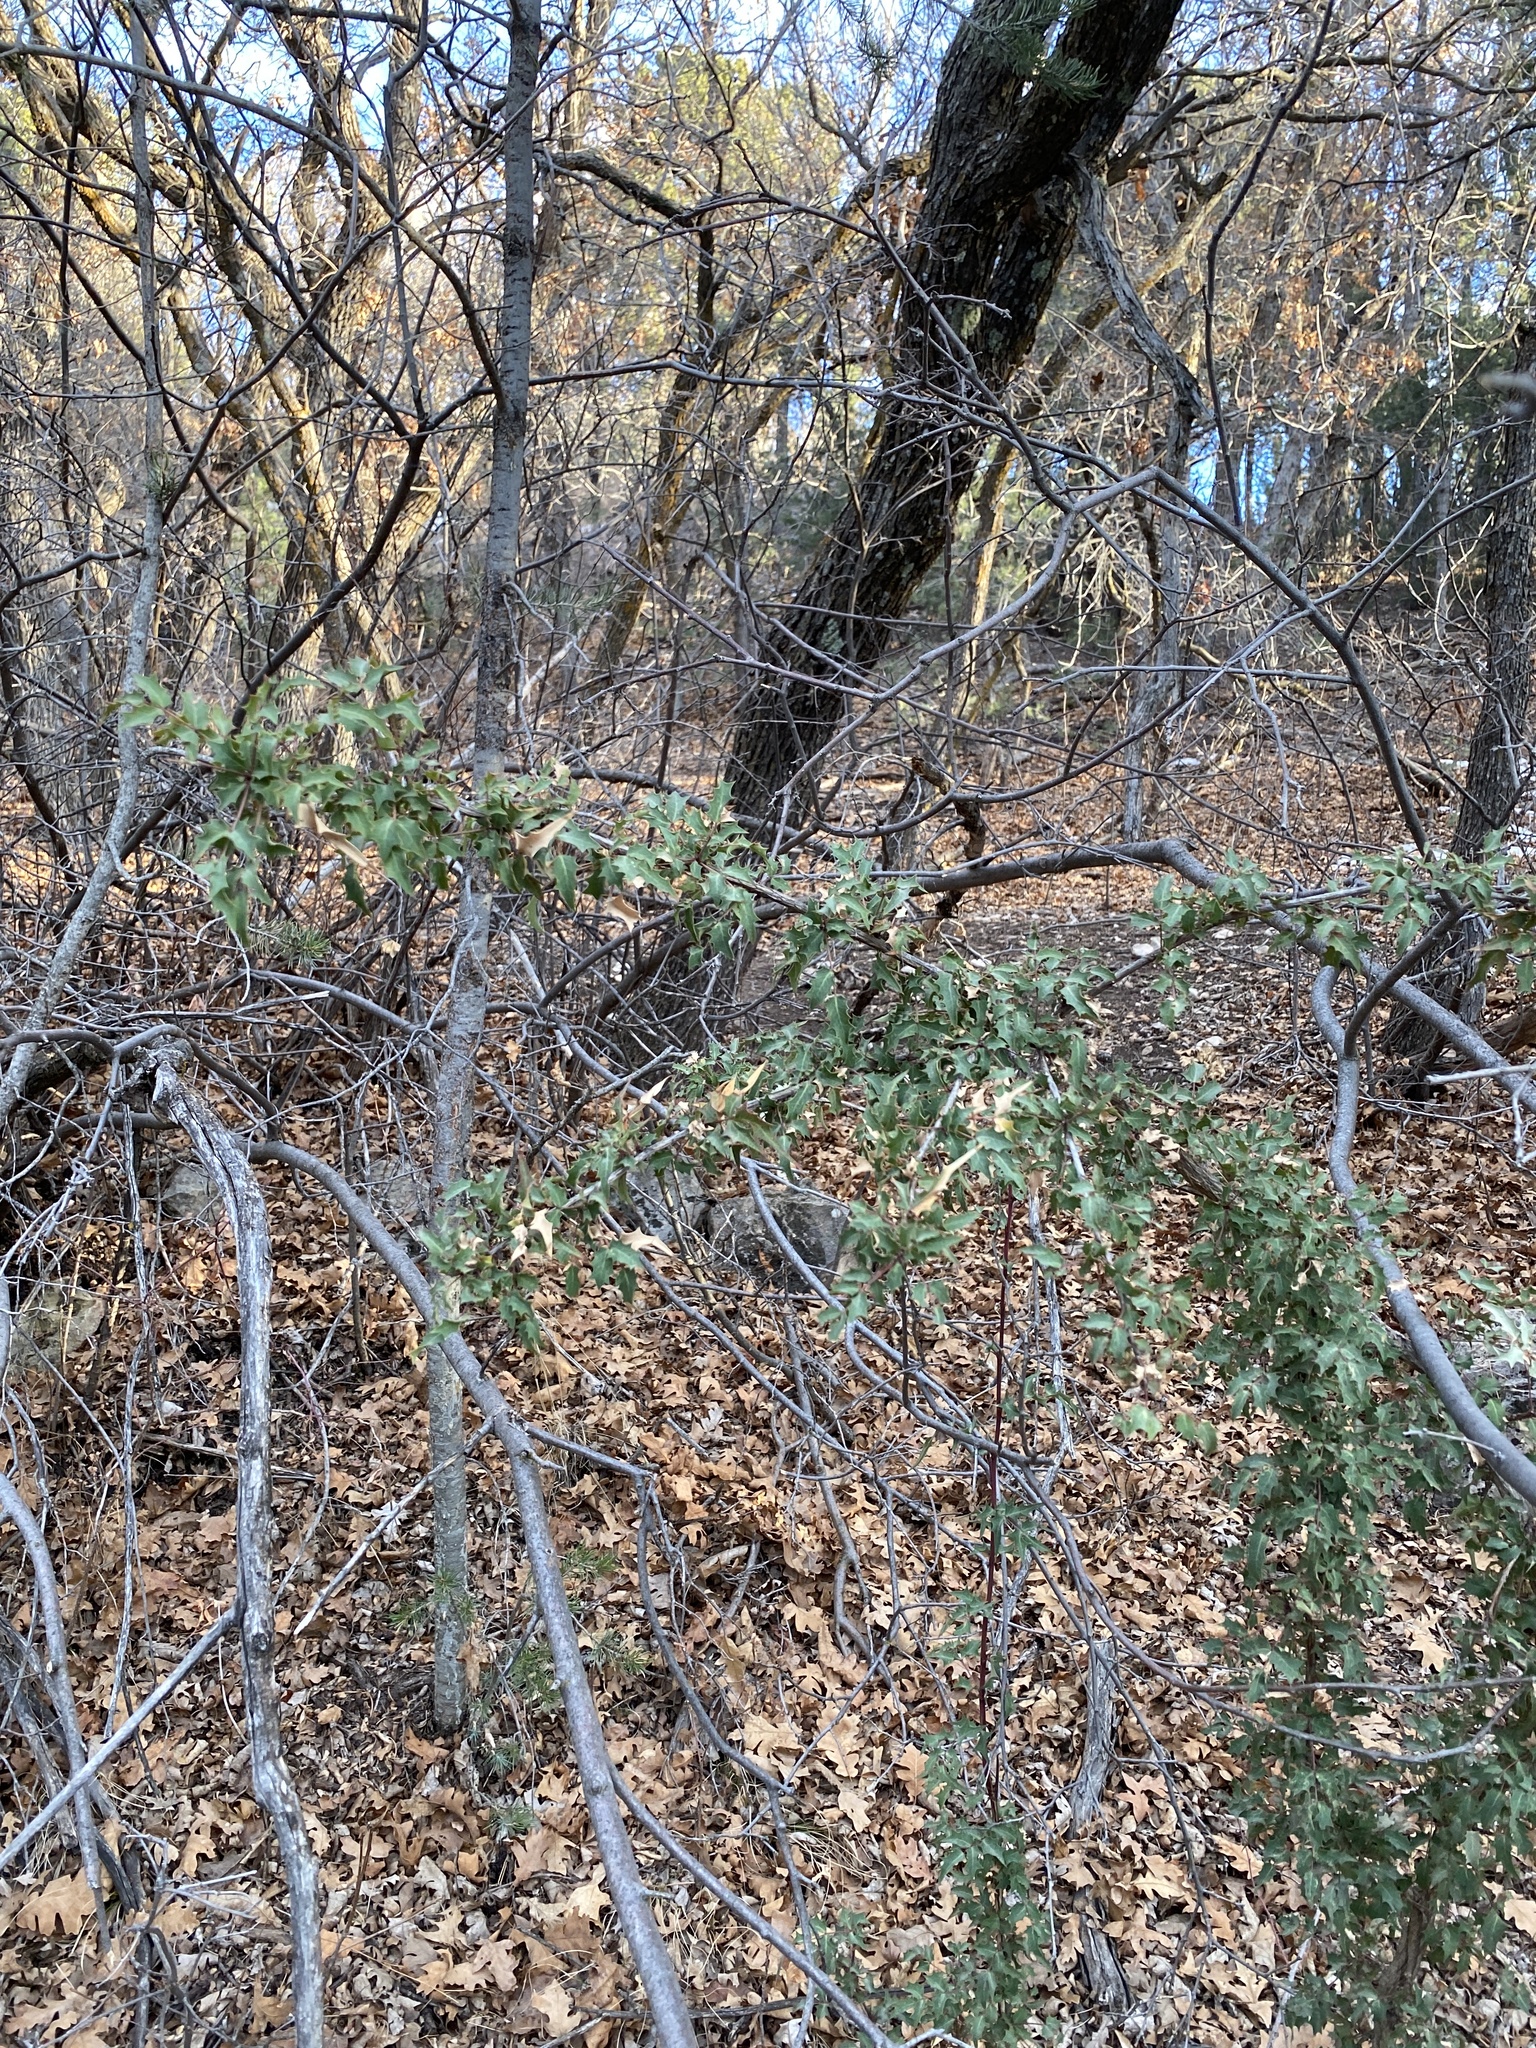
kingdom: Plantae
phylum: Tracheophyta
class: Magnoliopsida
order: Ranunculales
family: Berberidaceae
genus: Alloberberis
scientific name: Alloberberis haematocarpa
